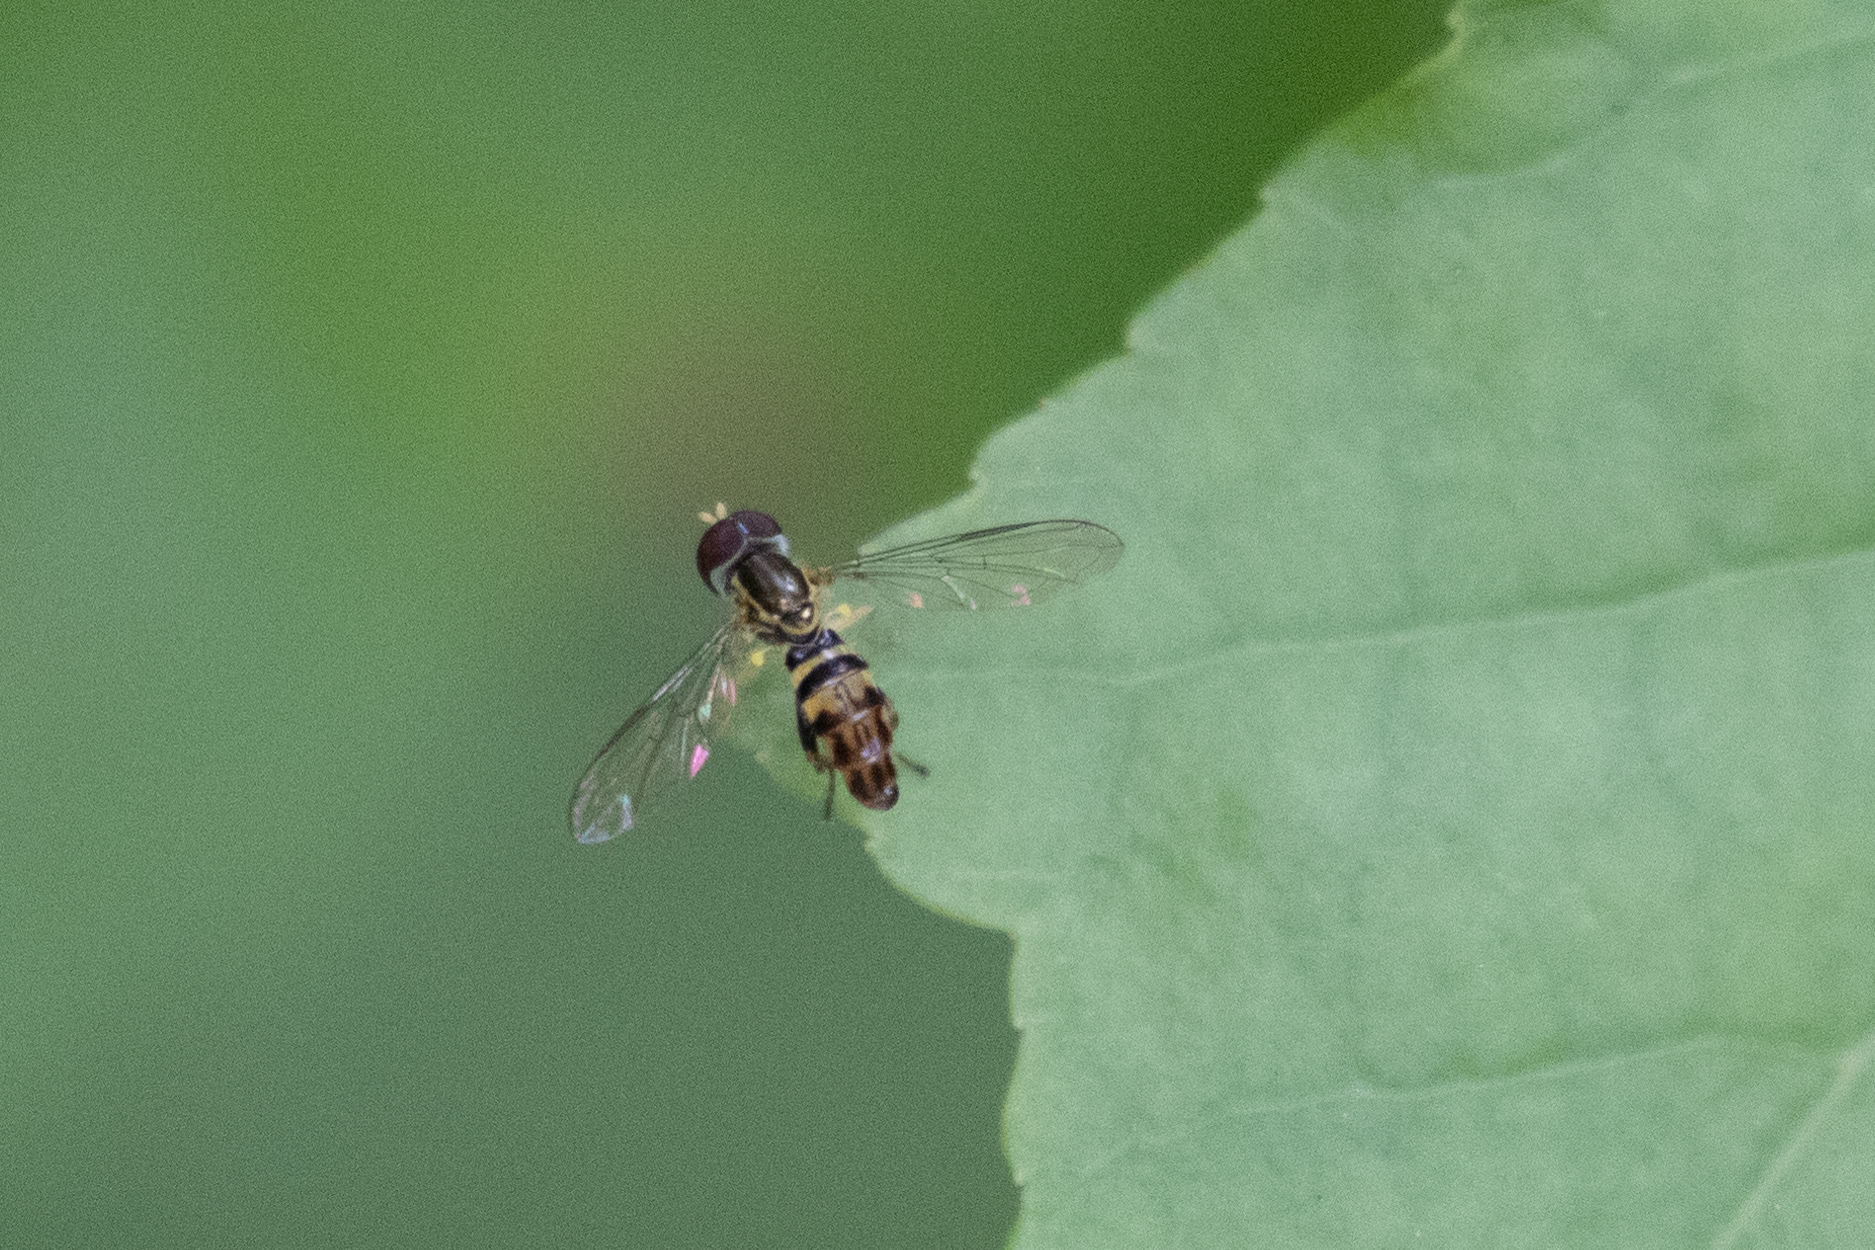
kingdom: Animalia
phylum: Arthropoda
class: Insecta
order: Diptera
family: Syrphidae
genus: Toxomerus
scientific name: Toxomerus geminatus
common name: Eastern calligrapher
